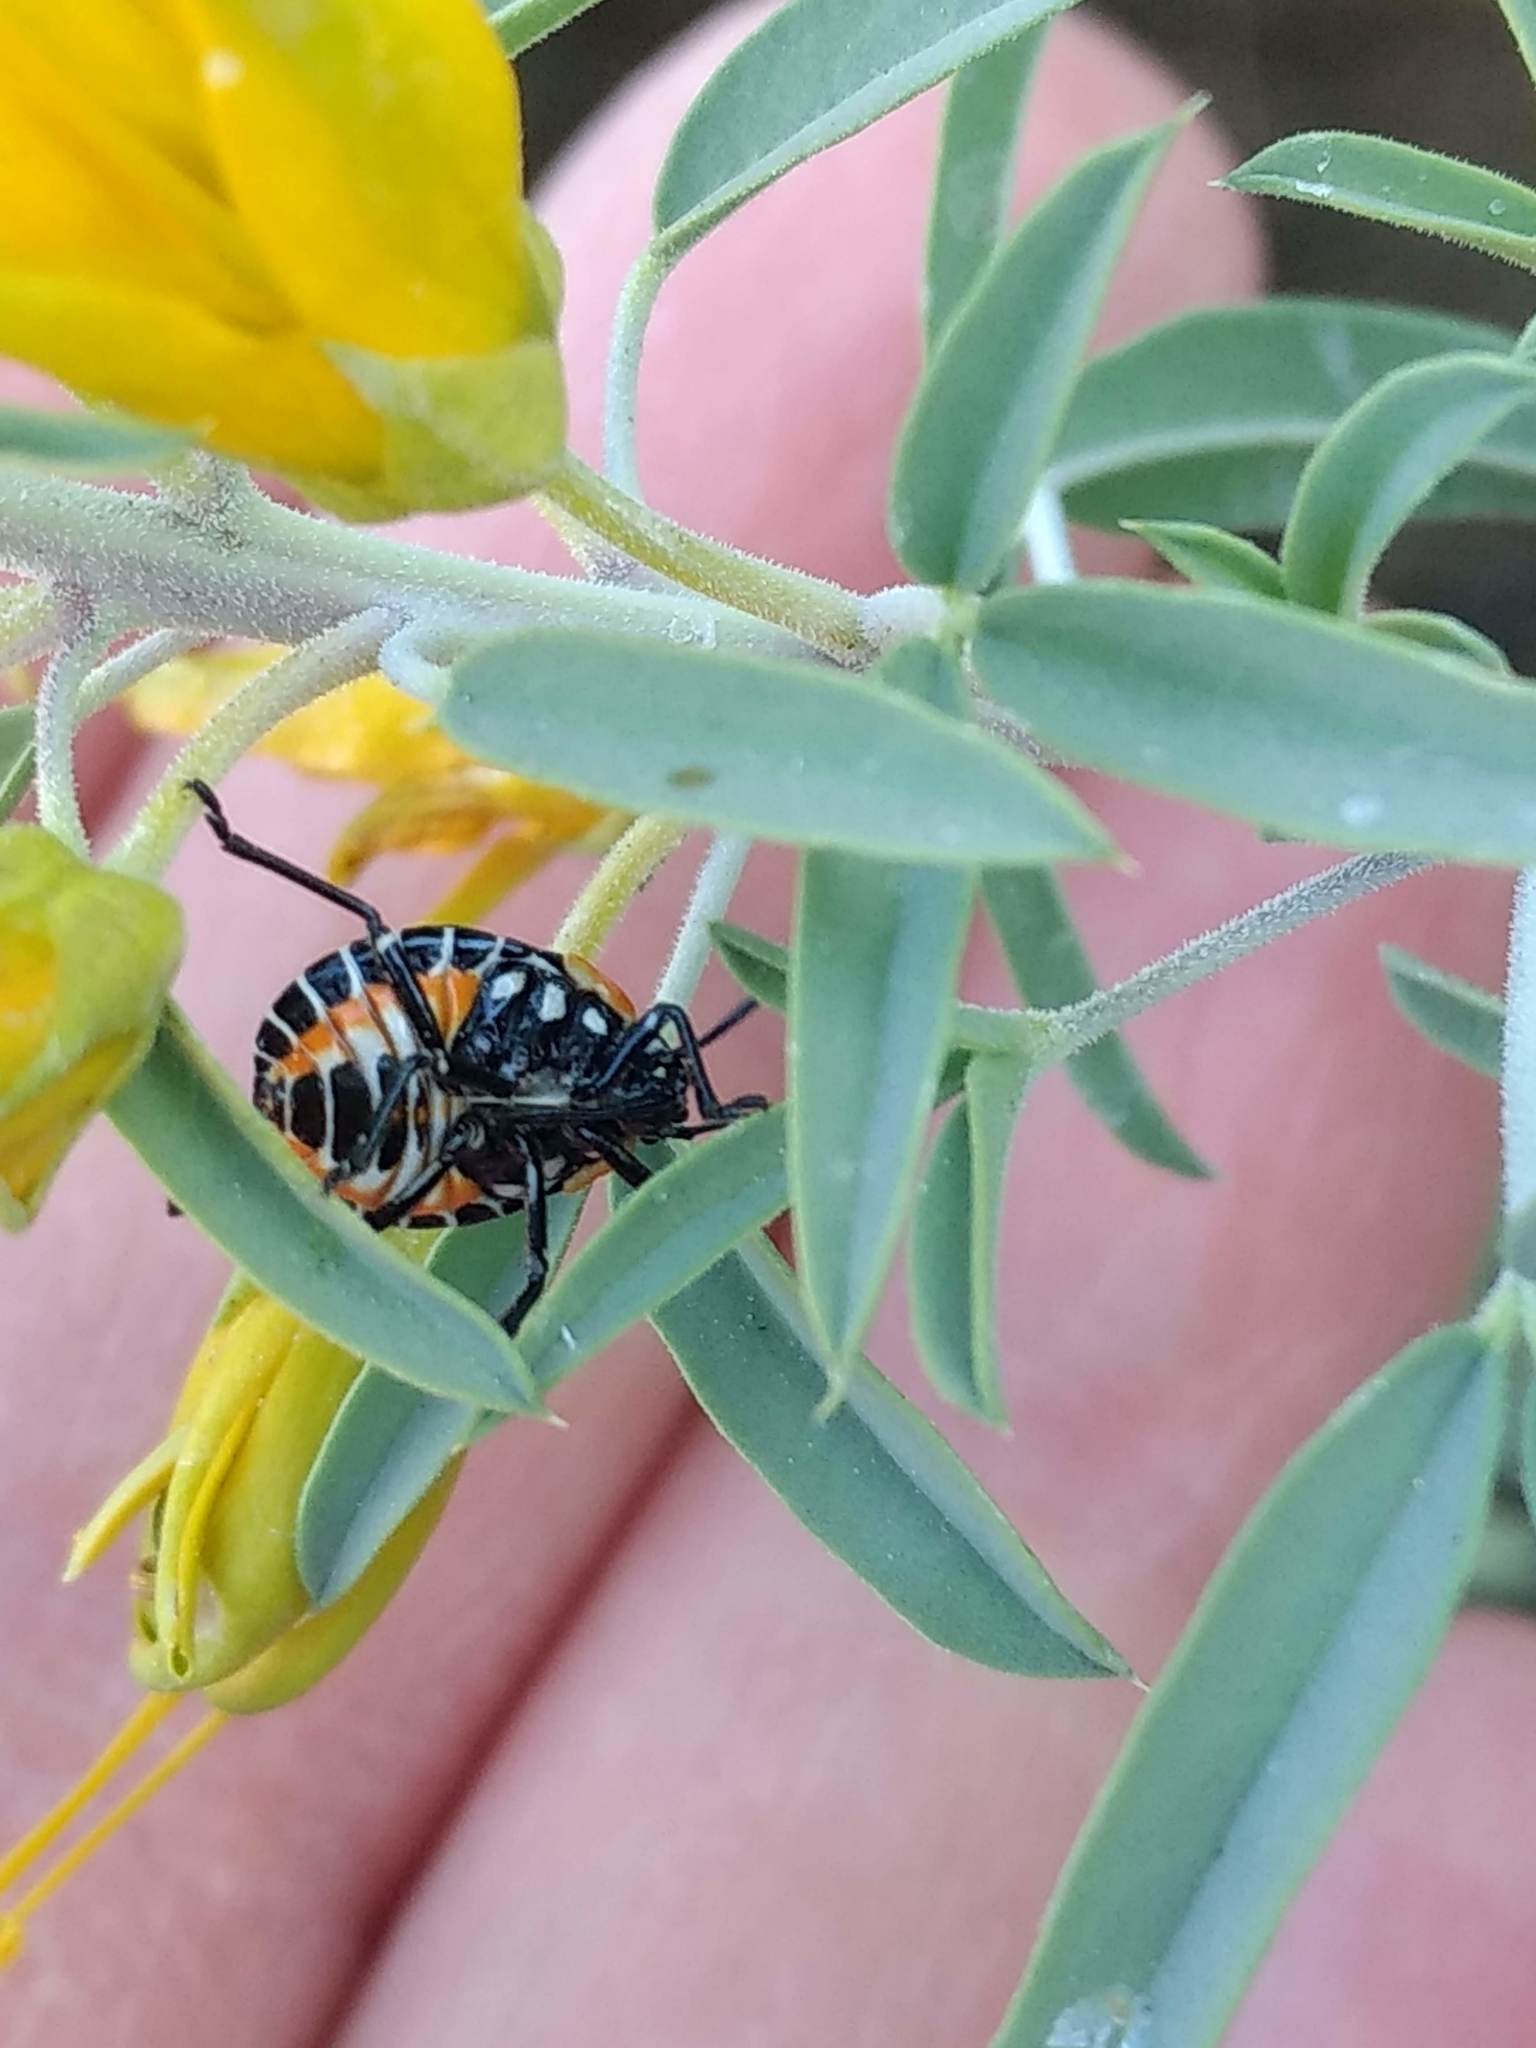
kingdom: Animalia
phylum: Arthropoda
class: Insecta
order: Hemiptera
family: Pentatomidae
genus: Murgantia
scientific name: Murgantia histrionica
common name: Harlequin bug
